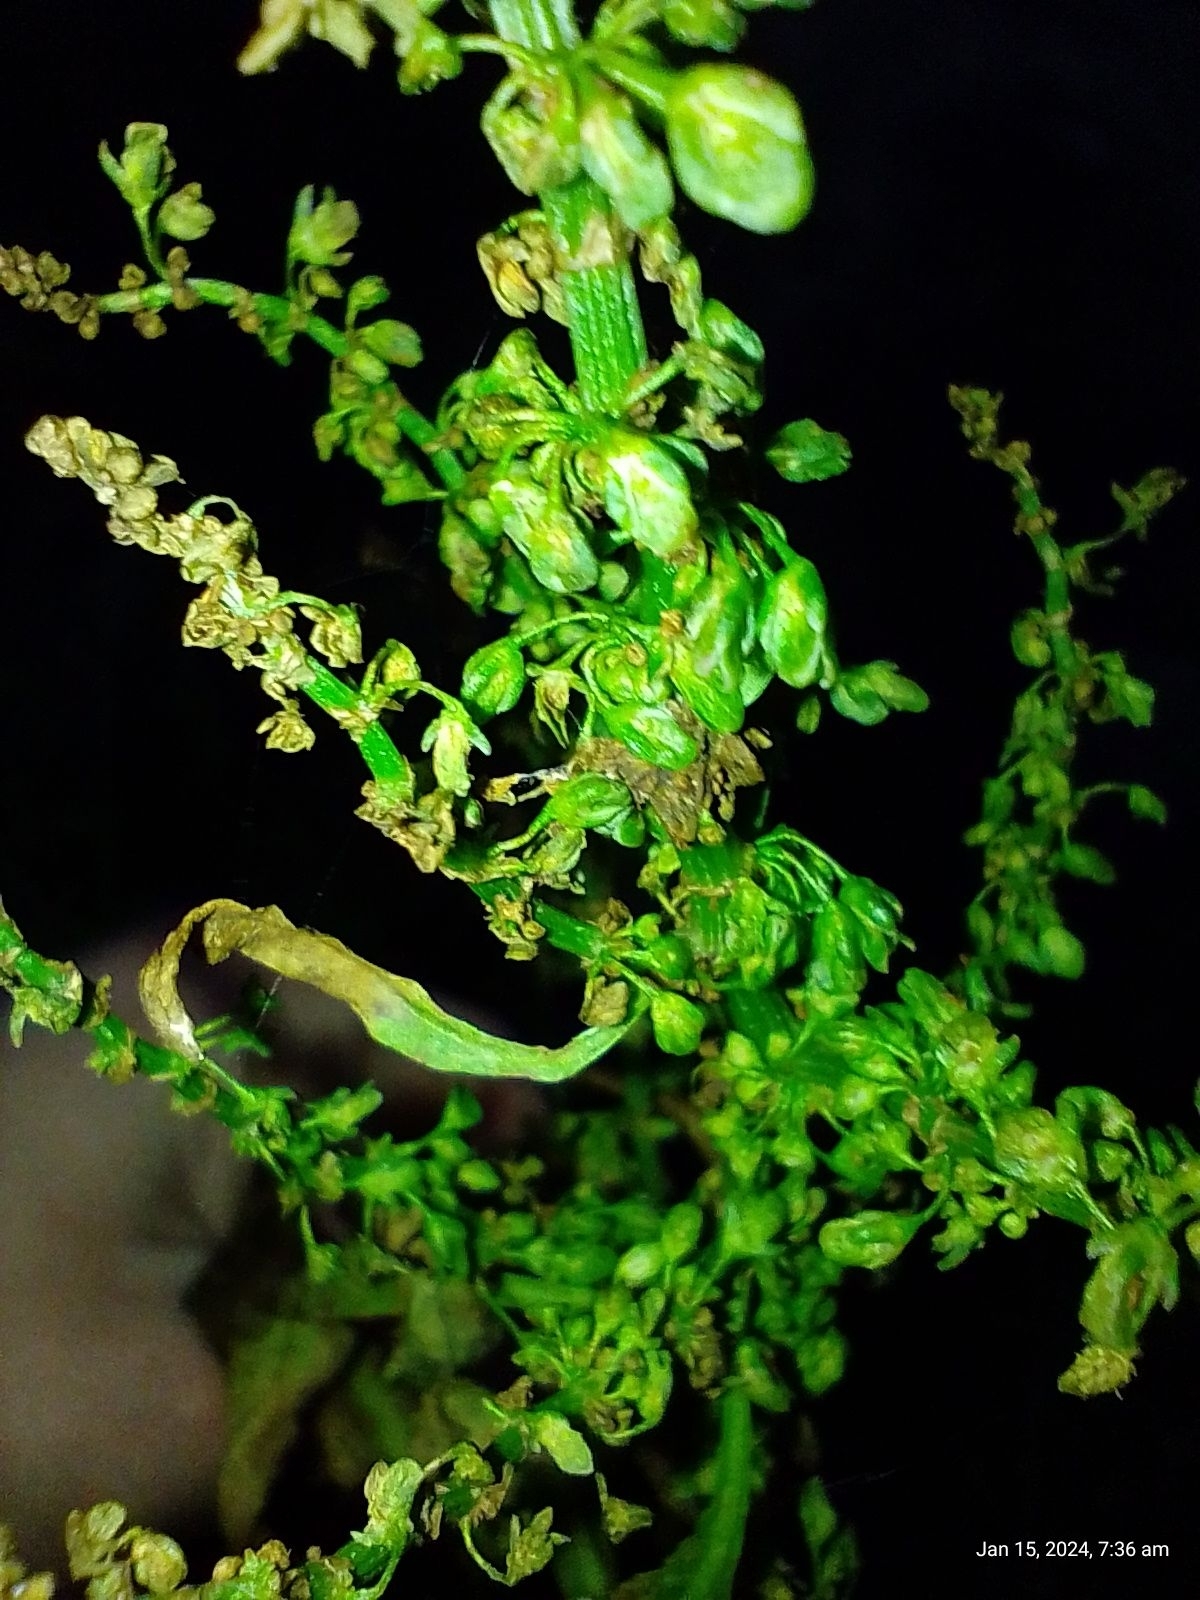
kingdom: Plantae
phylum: Tracheophyta
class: Magnoliopsida
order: Caryophyllales
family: Polygonaceae
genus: Rumex
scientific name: Rumex crispus
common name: Curled dock
